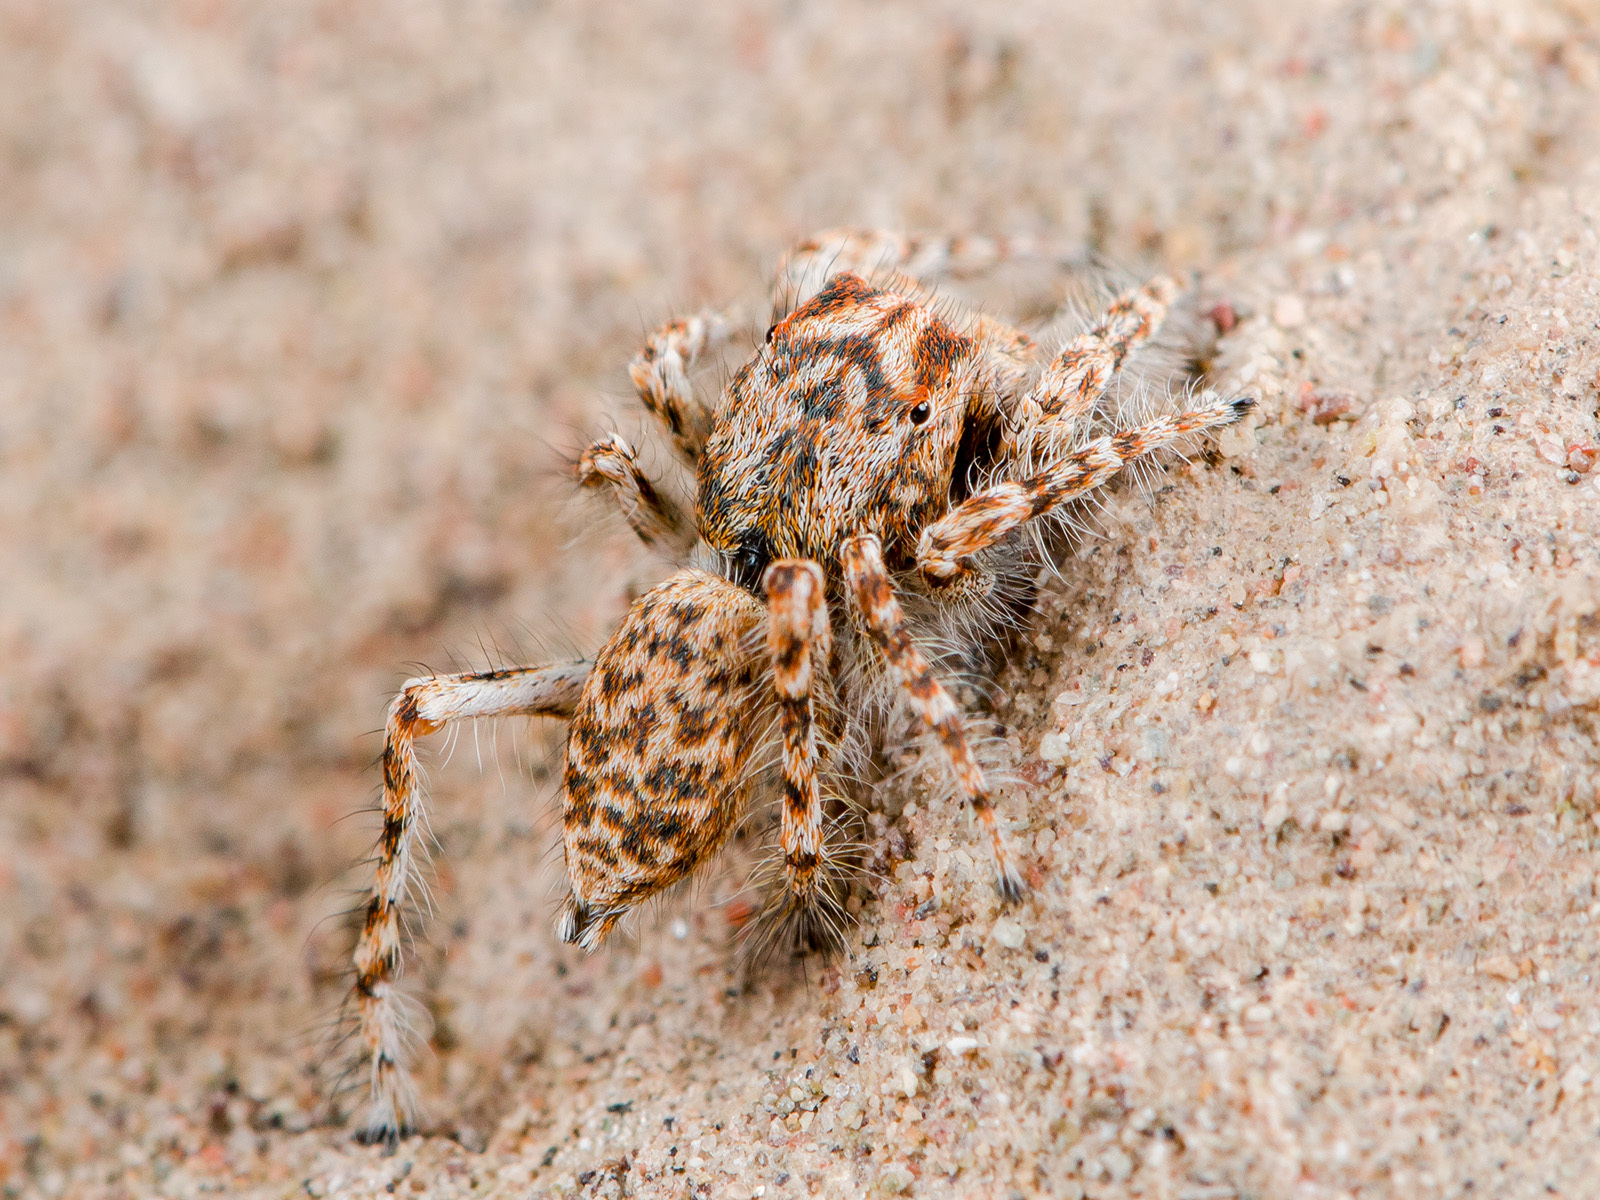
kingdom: Animalia
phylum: Arthropoda
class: Arachnida
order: Araneae
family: Salticidae
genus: Yllenus
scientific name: Yllenus uiguricus
